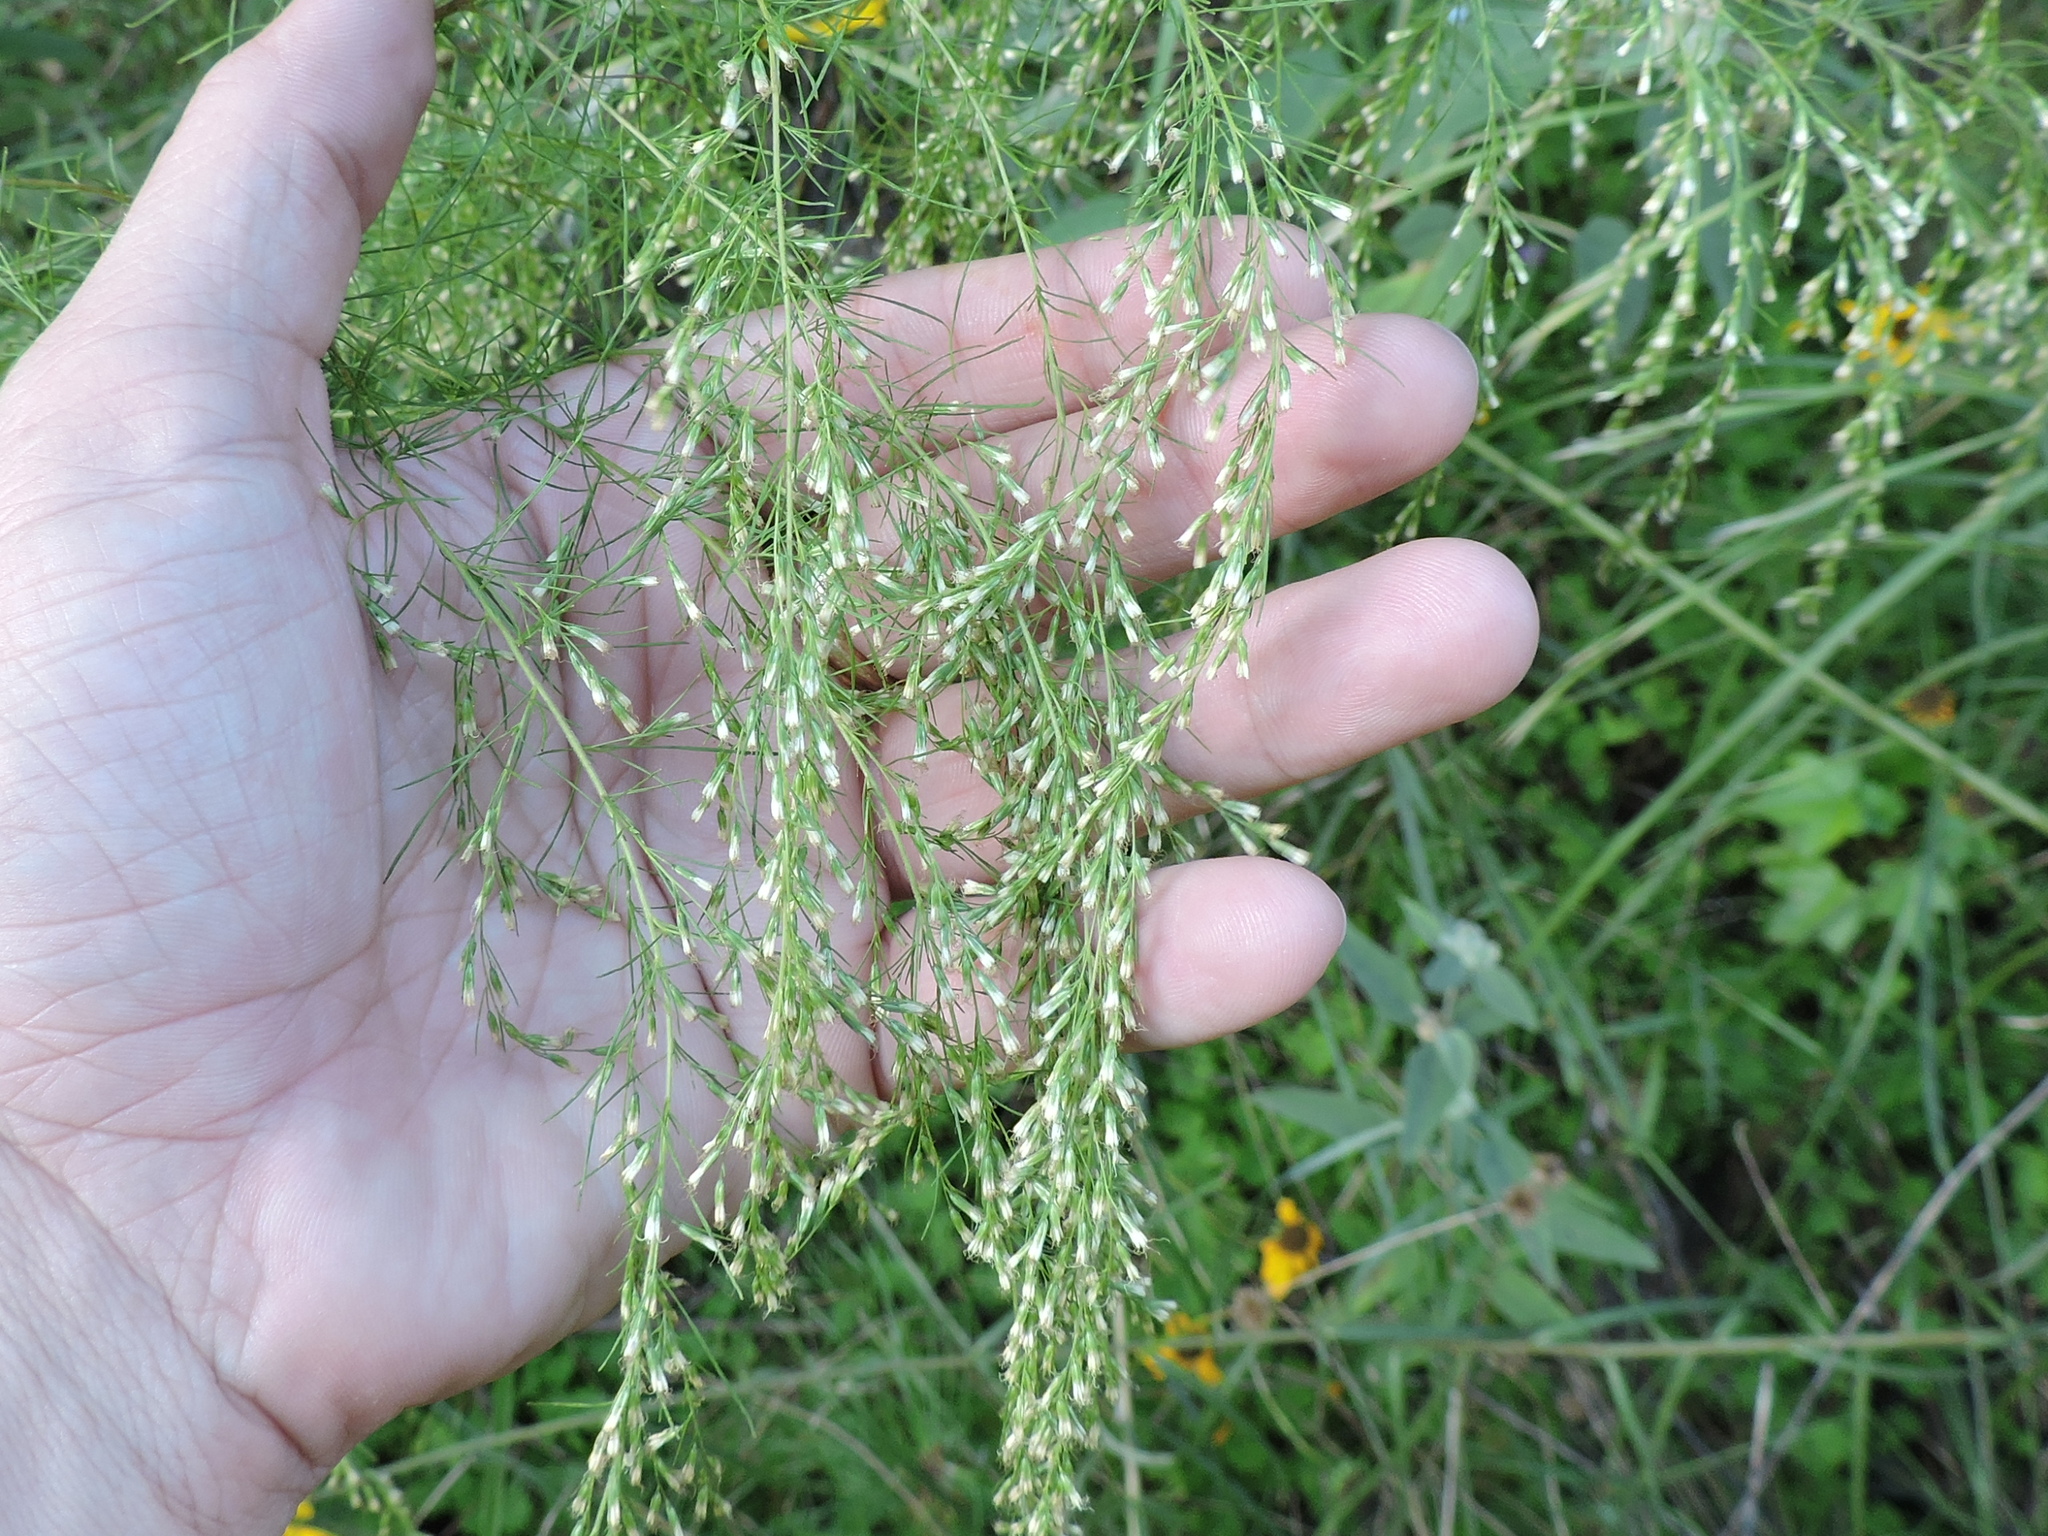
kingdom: Plantae
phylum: Tracheophyta
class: Magnoliopsida
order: Asterales
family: Asteraceae
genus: Eupatorium
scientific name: Eupatorium capillifolium
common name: Dog-fennel
